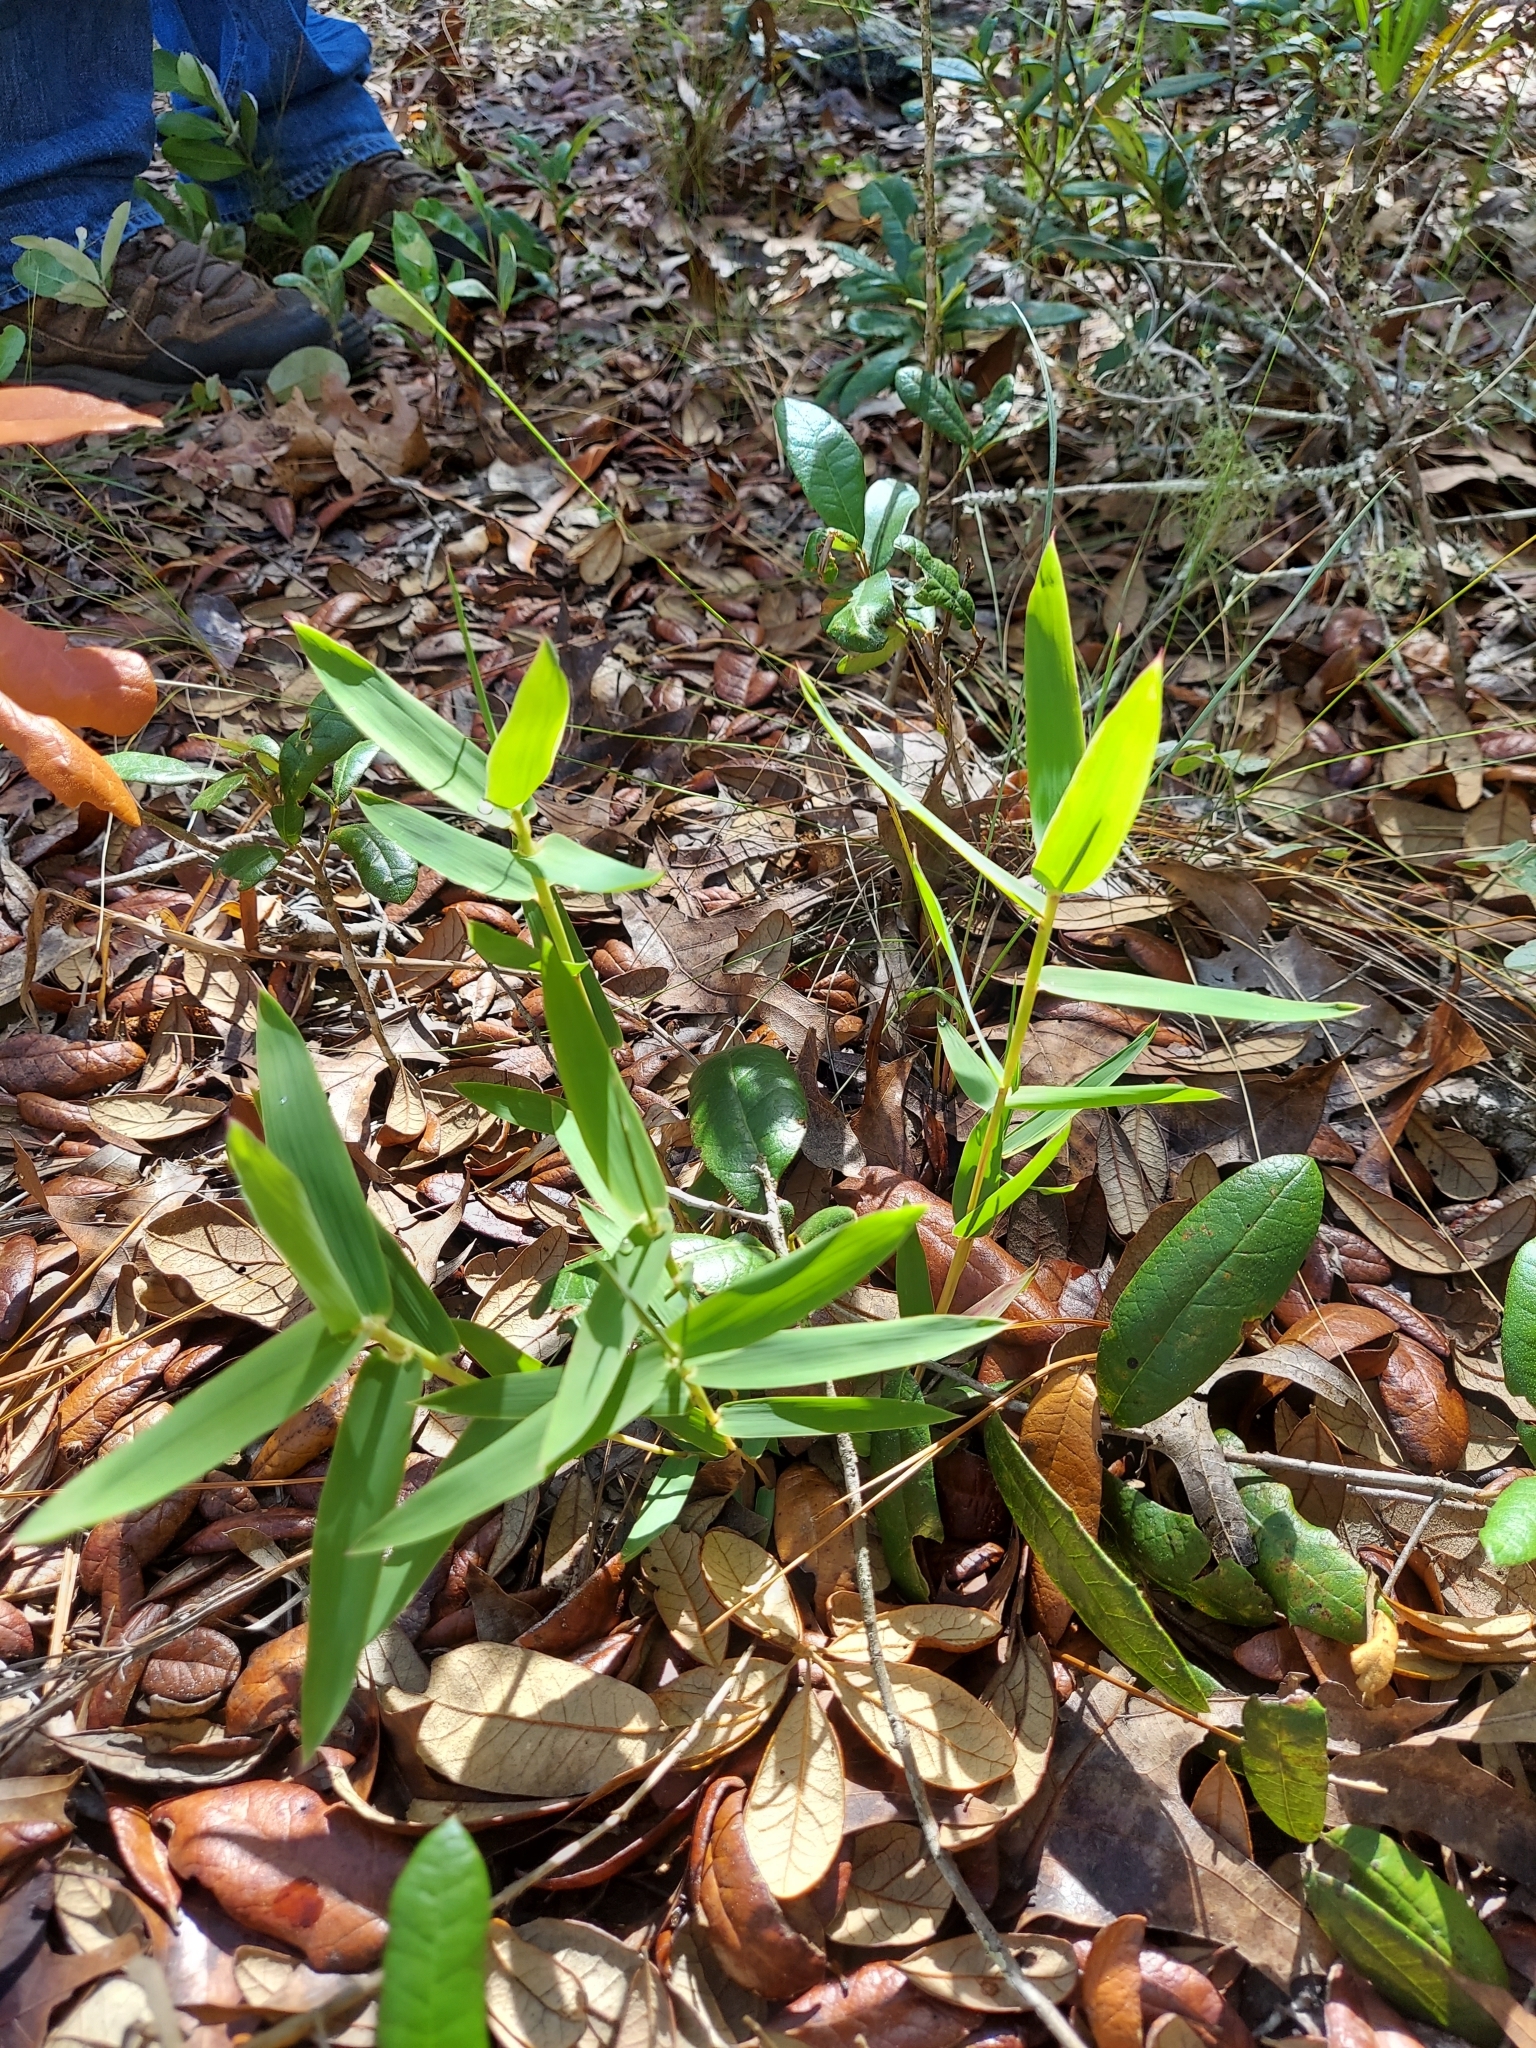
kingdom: Plantae
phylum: Tracheophyta
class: Liliopsida
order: Poales
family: Poaceae
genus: Gymnopogon
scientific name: Gymnopogon ambiguus
